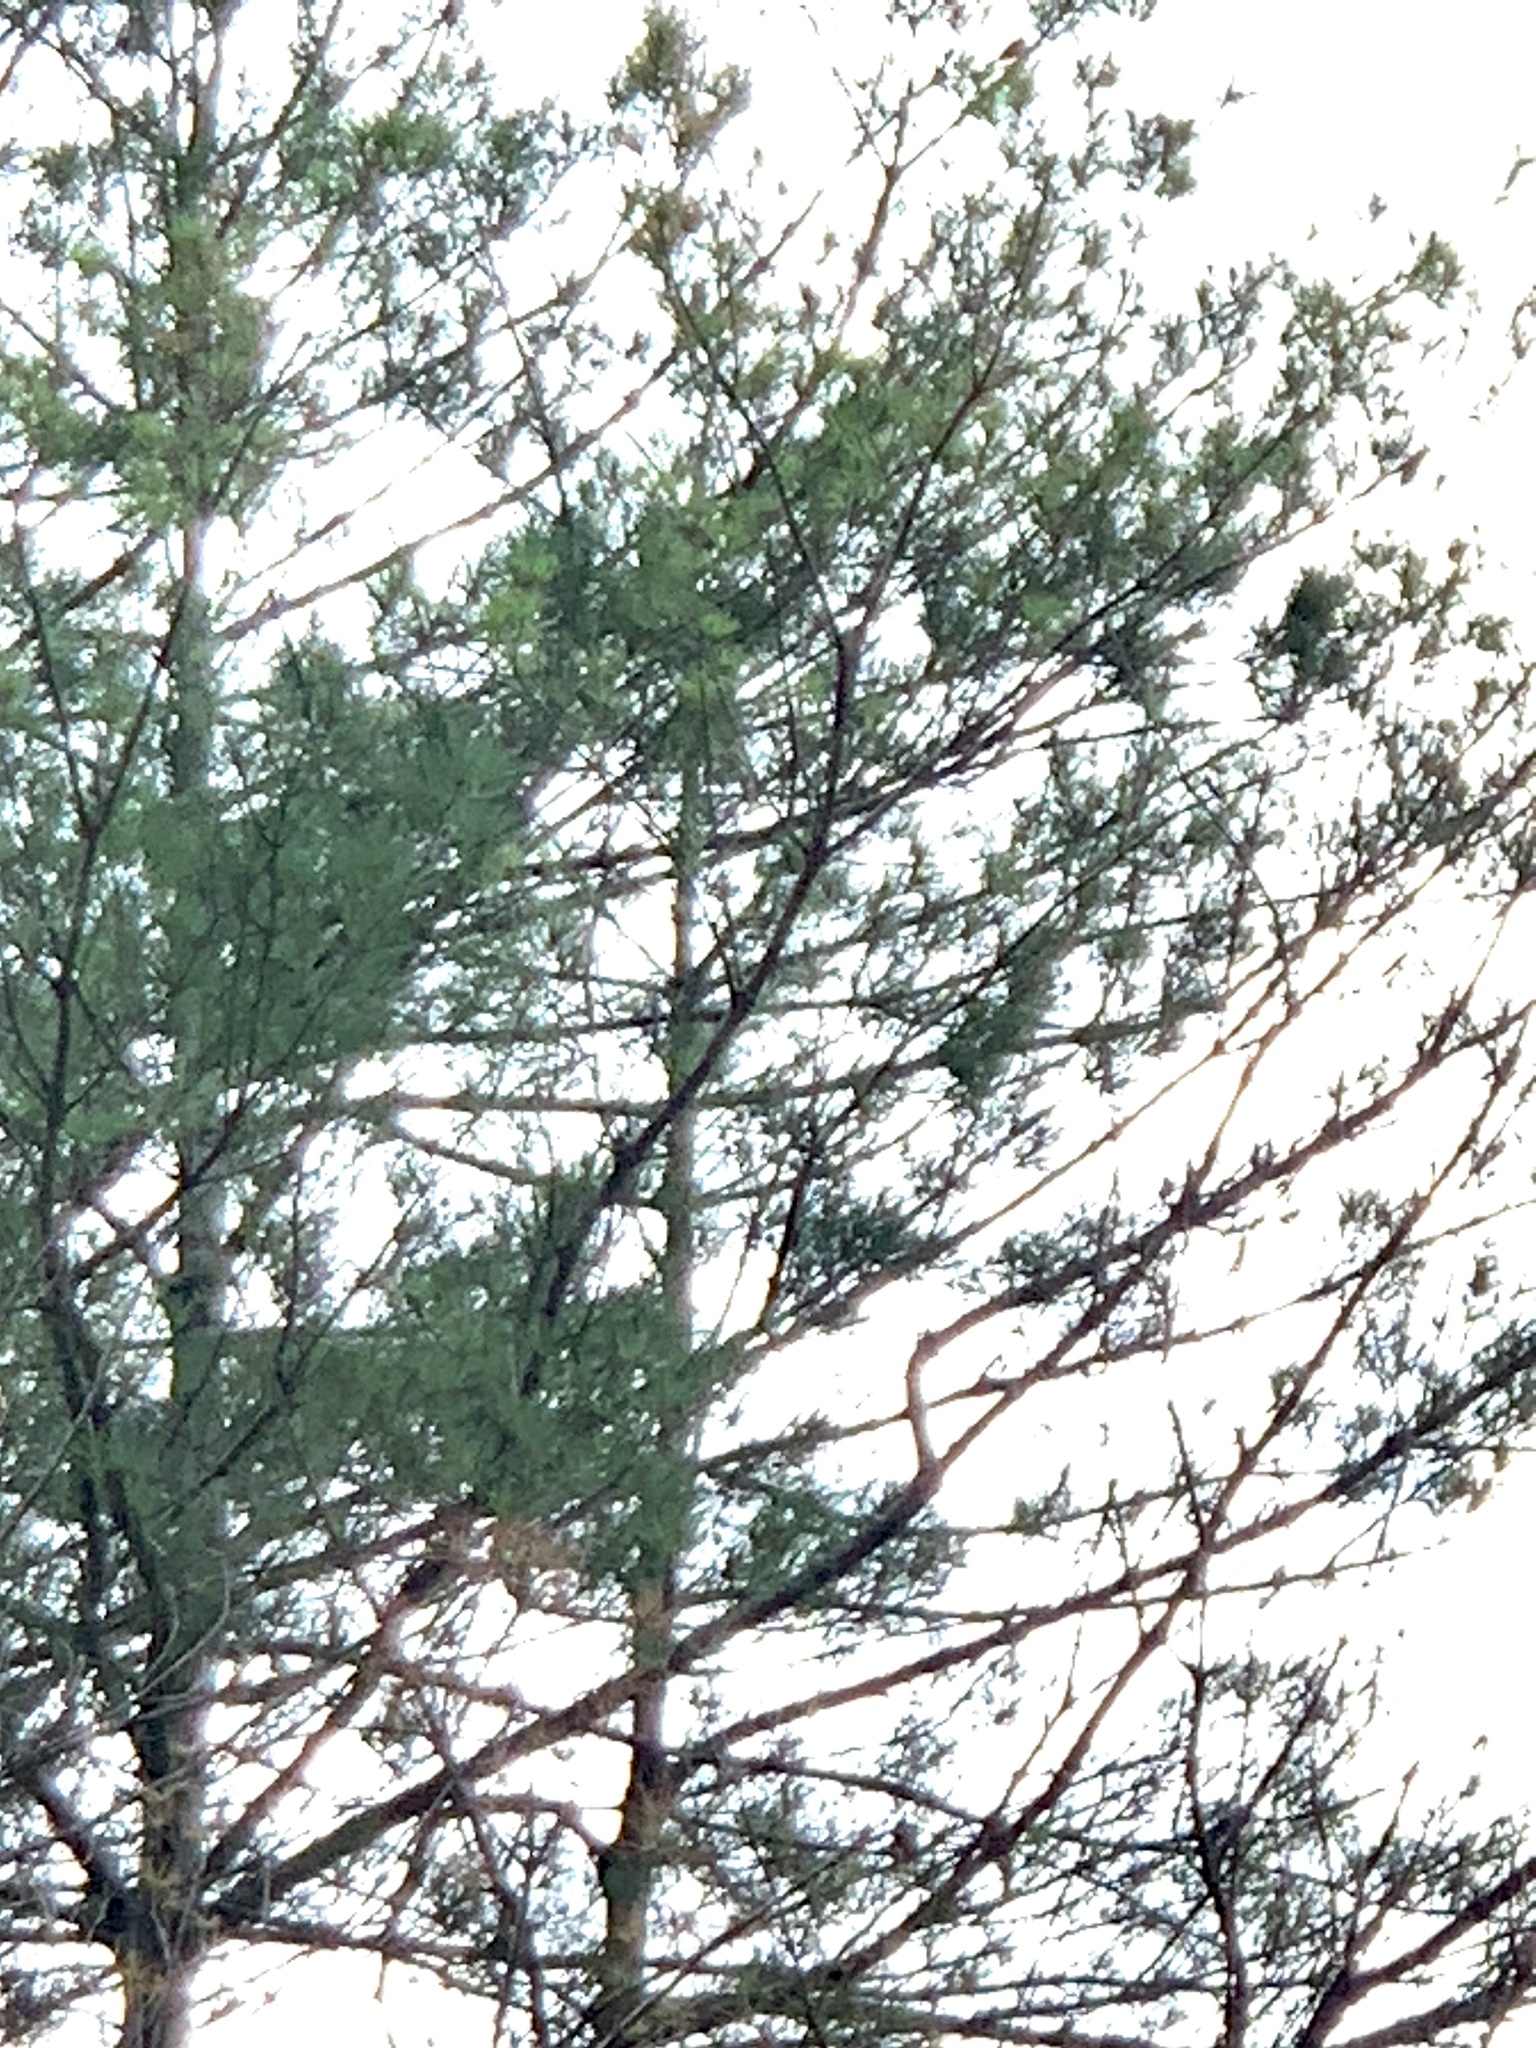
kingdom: Plantae
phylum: Tracheophyta
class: Pinopsida
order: Pinales
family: Pinaceae
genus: Pinus
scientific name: Pinus strobus
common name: Weymouth pine
